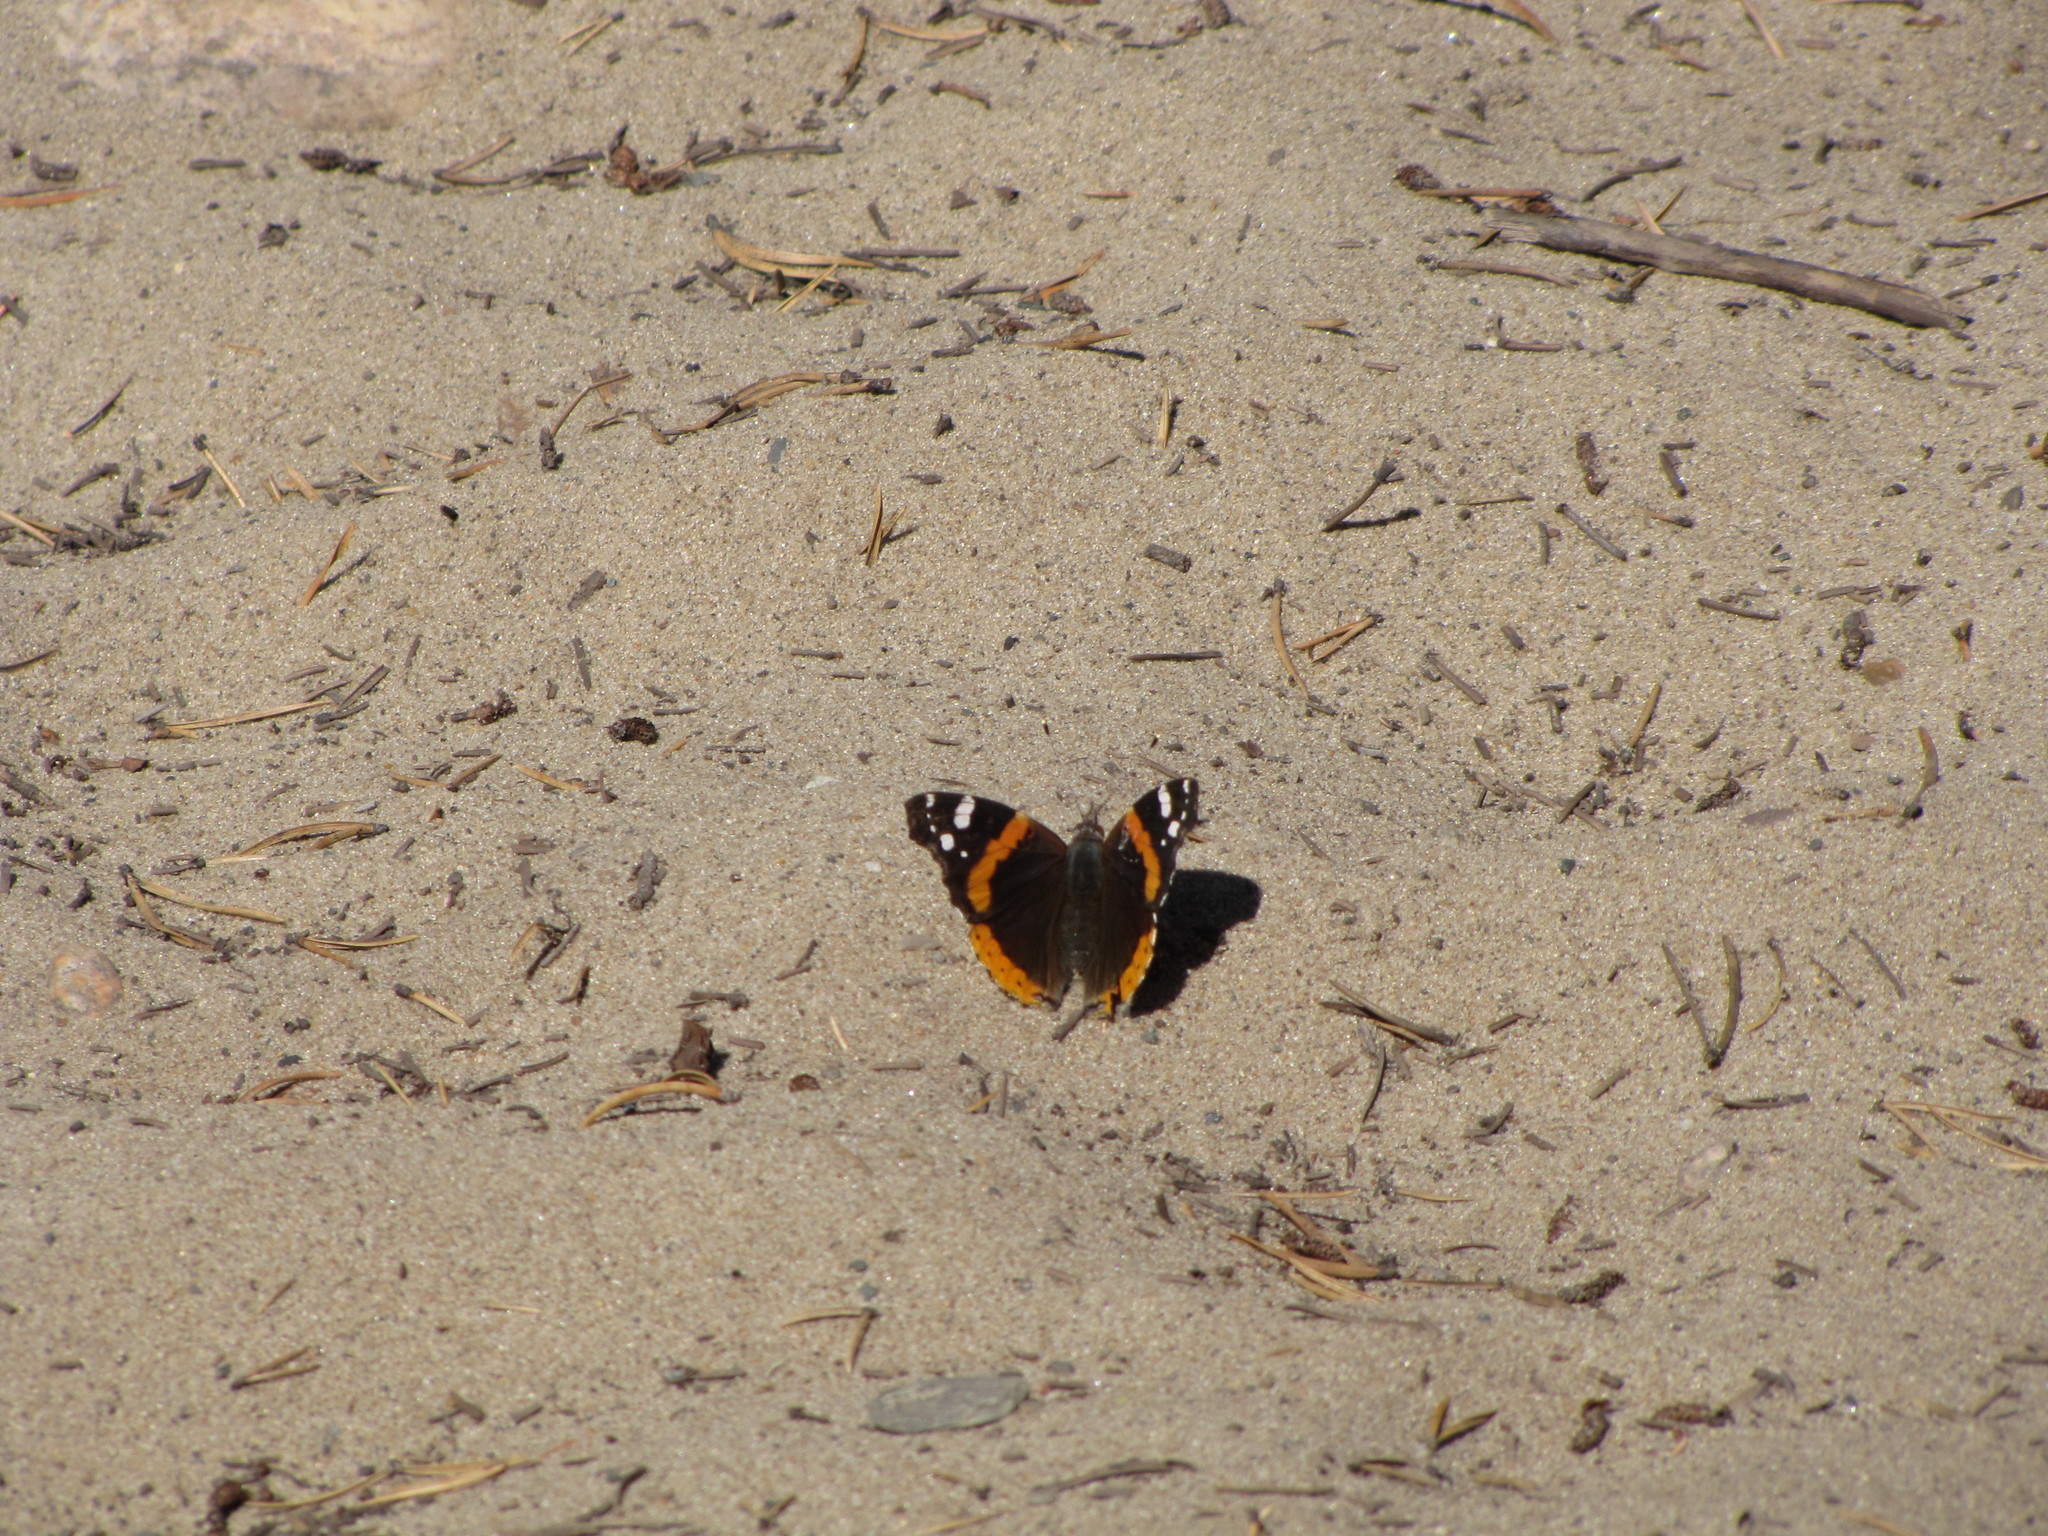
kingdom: Animalia
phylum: Arthropoda
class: Insecta
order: Lepidoptera
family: Nymphalidae
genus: Vanessa
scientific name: Vanessa atalanta
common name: Red admiral
